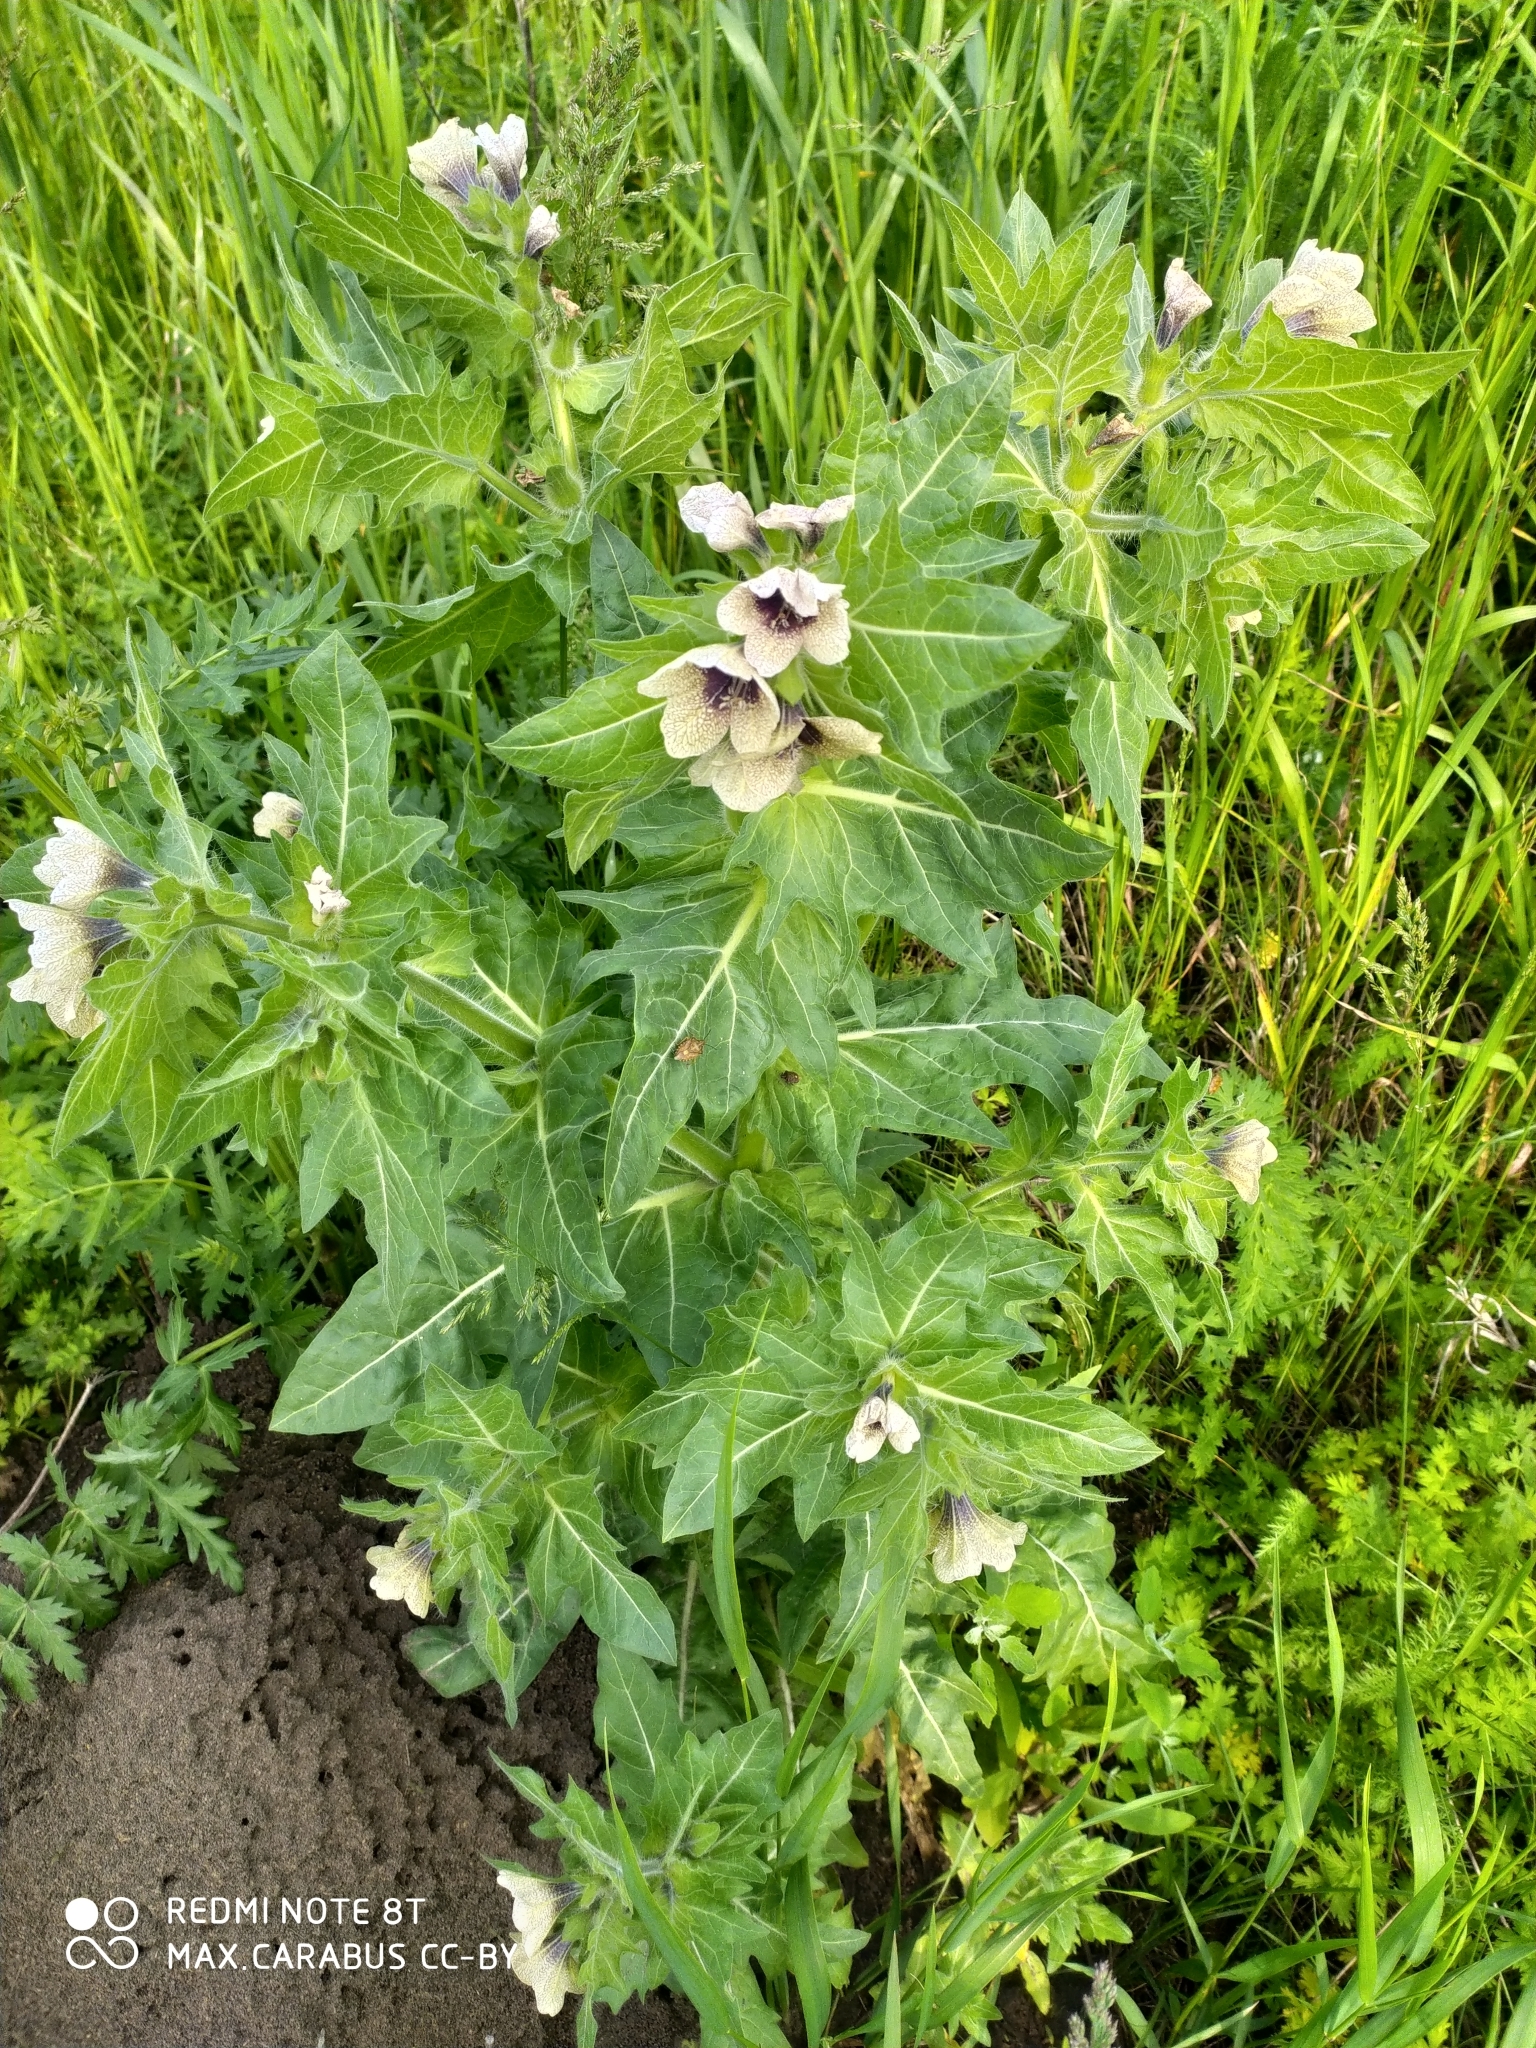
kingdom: Plantae
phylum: Tracheophyta
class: Magnoliopsida
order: Solanales
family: Solanaceae
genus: Hyoscyamus
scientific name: Hyoscyamus niger
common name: Henbane
